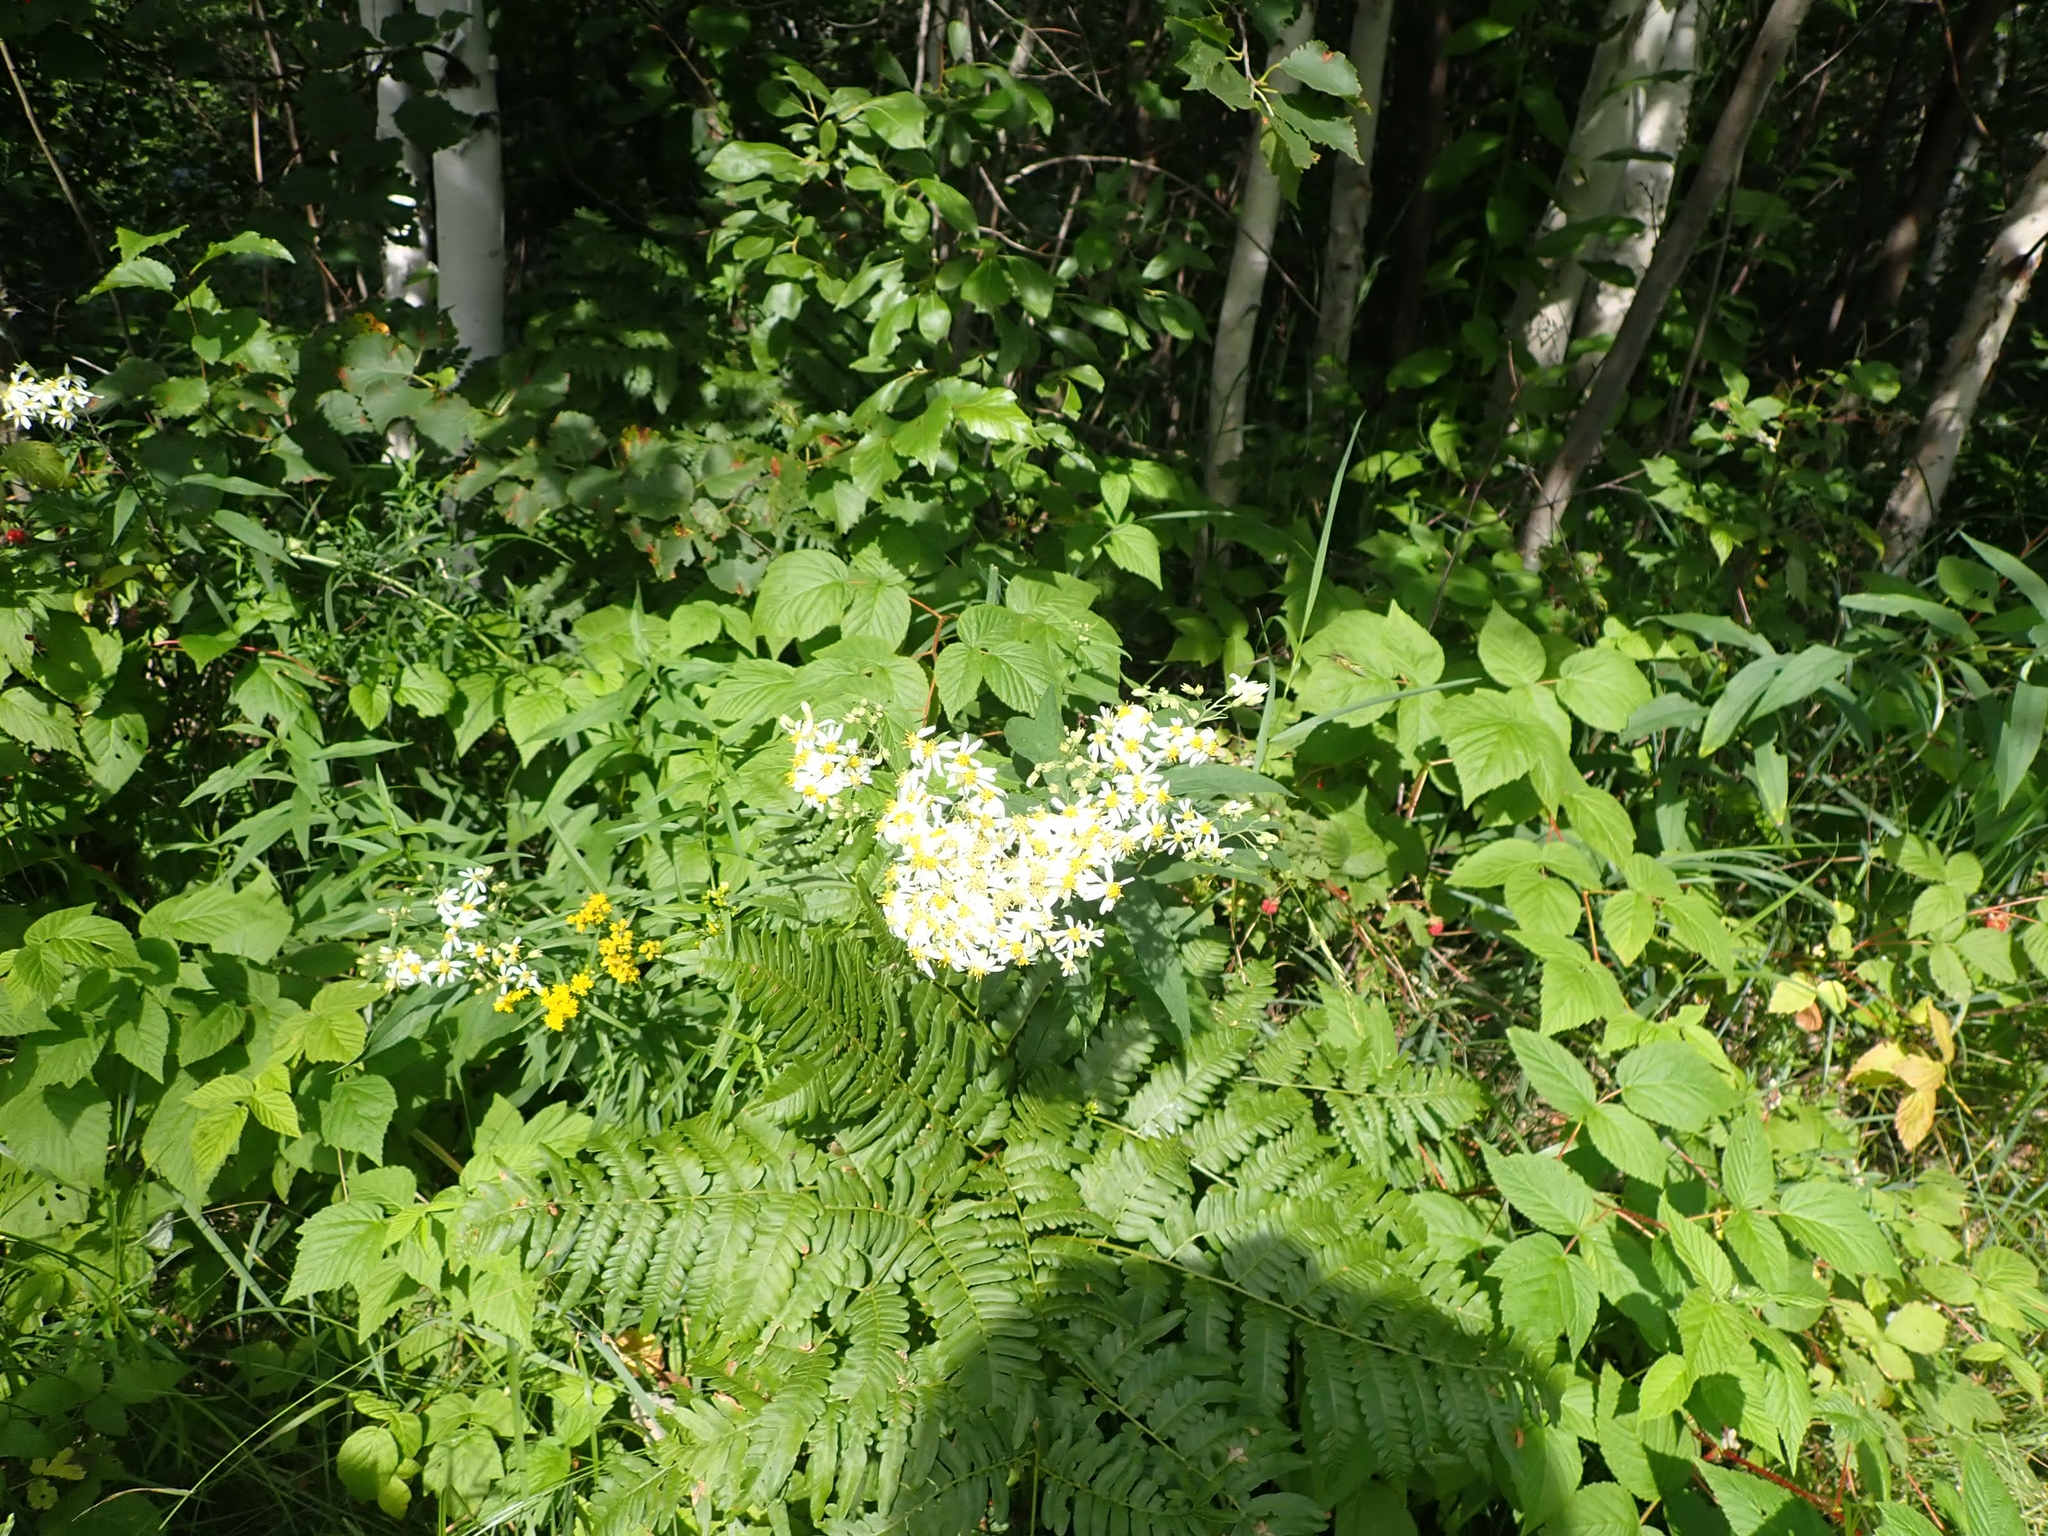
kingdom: Plantae
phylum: Tracheophyta
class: Magnoliopsida
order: Asterales
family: Asteraceae
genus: Doellingeria
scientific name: Doellingeria umbellata
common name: Flat-top white aster
